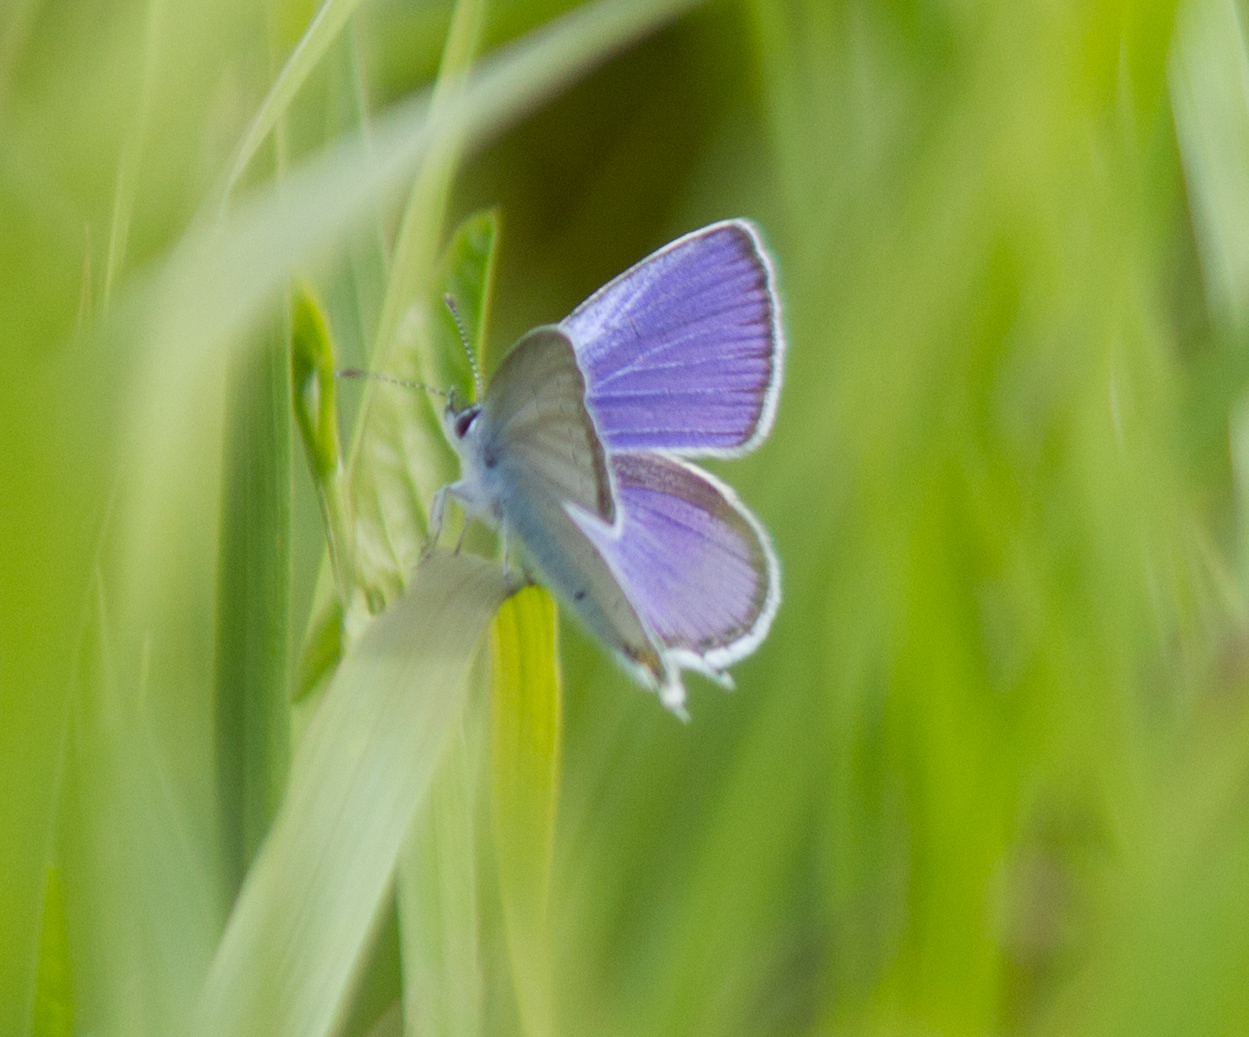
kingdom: Animalia
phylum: Arthropoda
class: Insecta
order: Lepidoptera
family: Lycaenidae
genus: Elkalyce
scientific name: Elkalyce argiades
